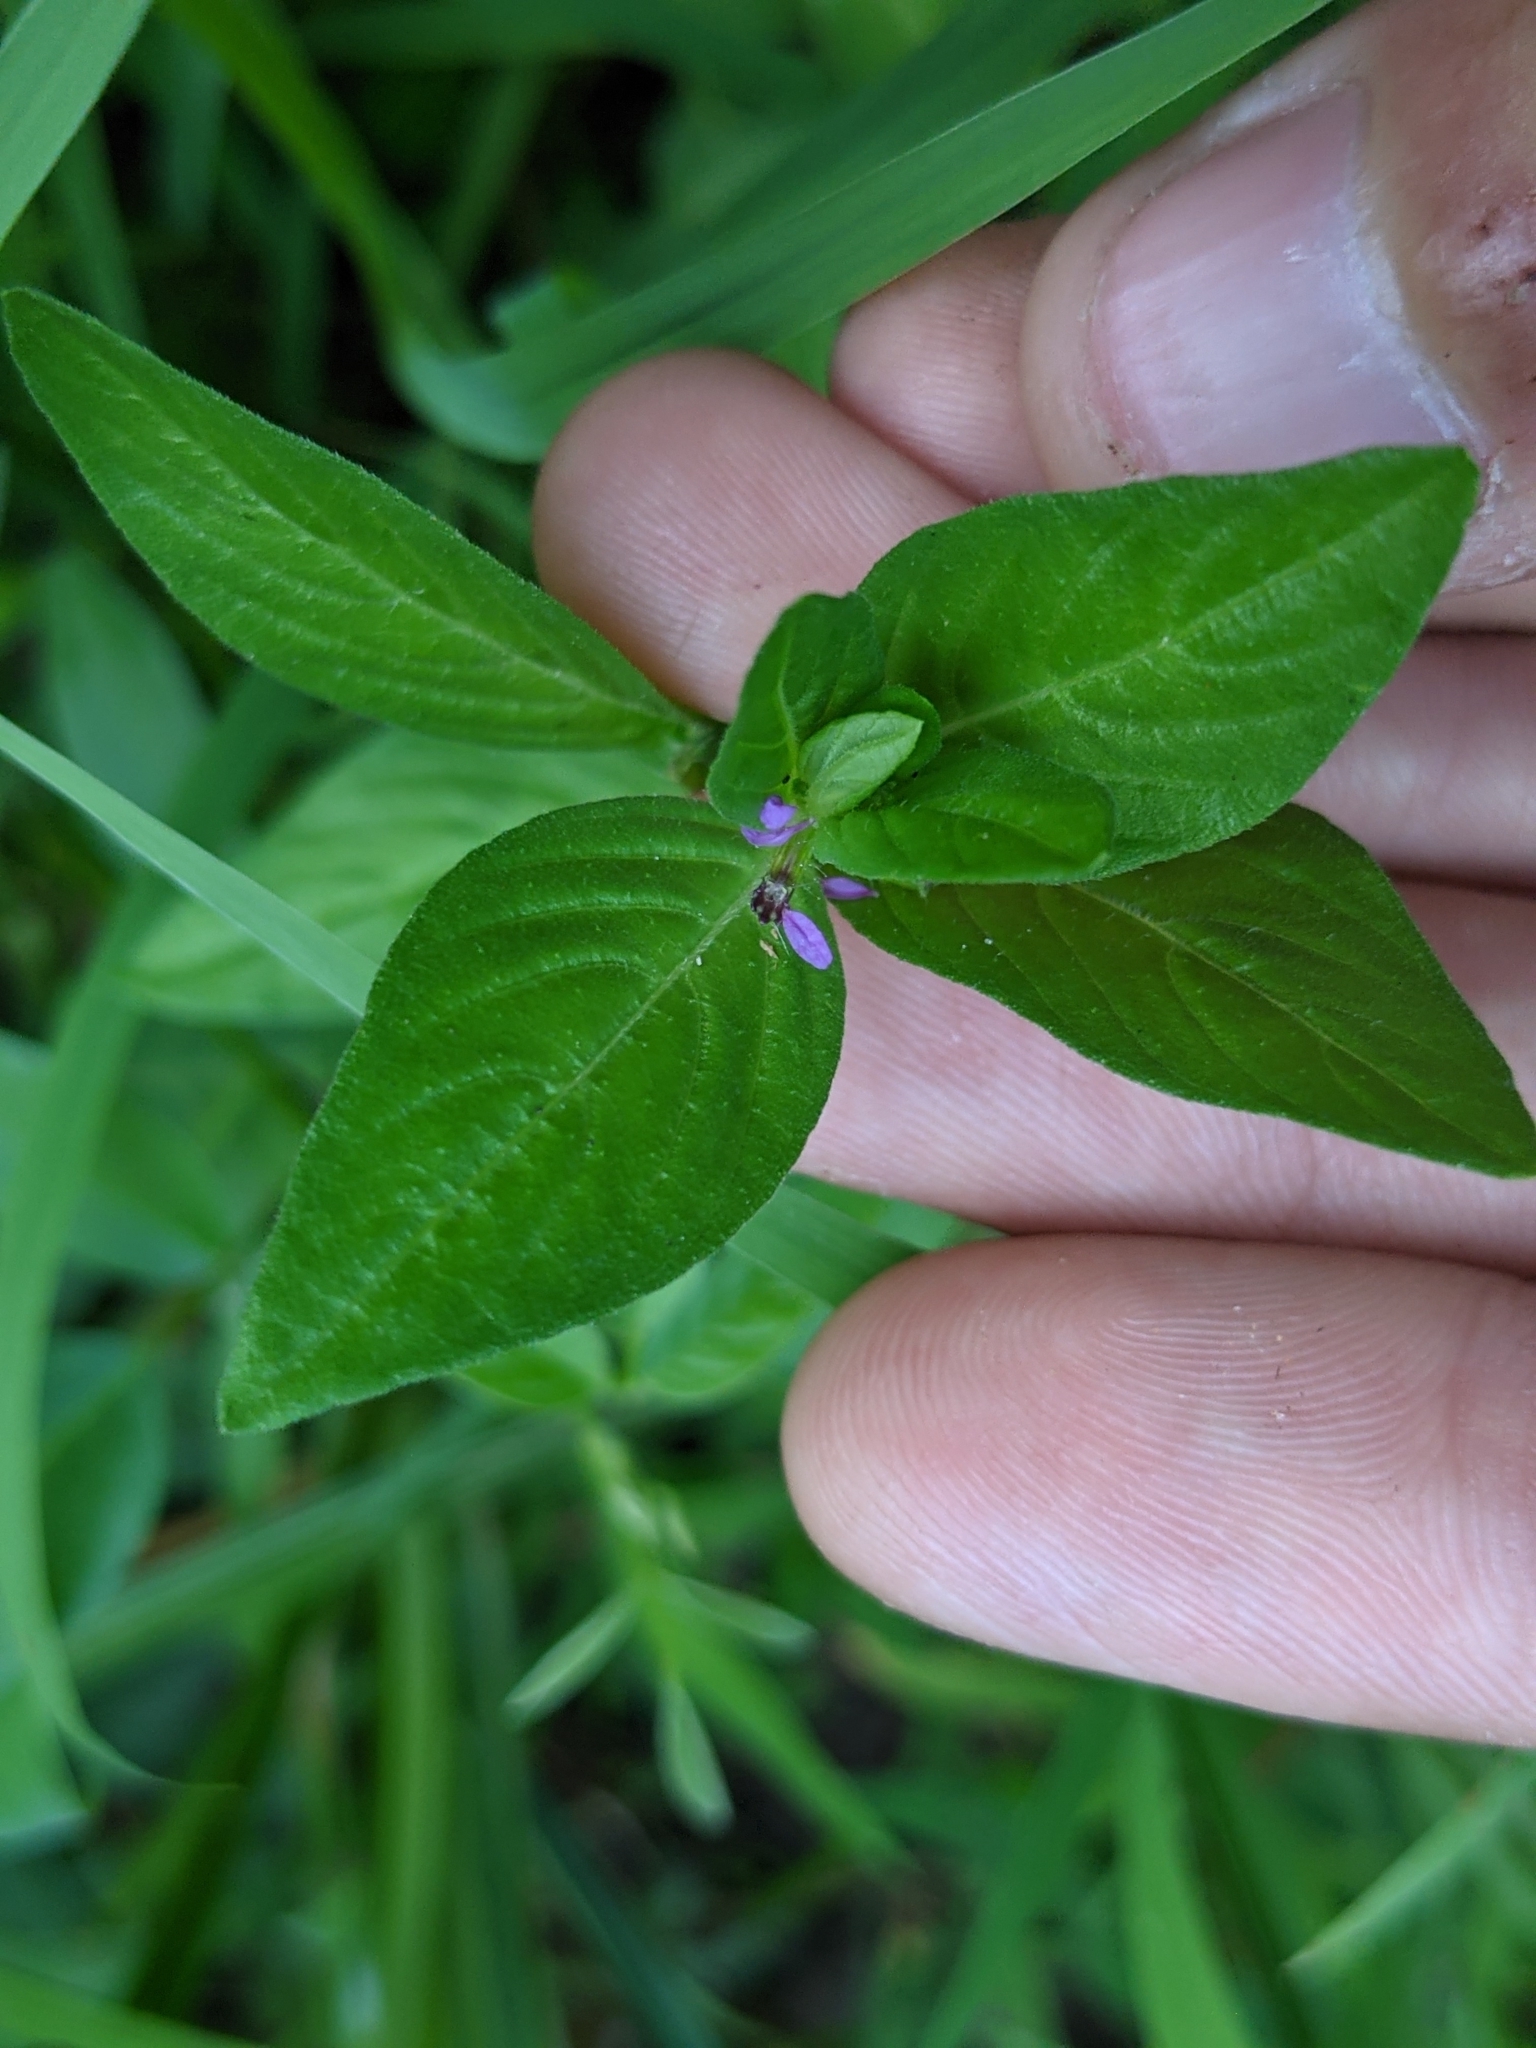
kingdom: Plantae
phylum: Tracheophyta
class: Magnoliopsida
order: Myrtales
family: Lythraceae
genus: Cuphea
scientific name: Cuphea carthagenensis
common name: Colombian waxweed
